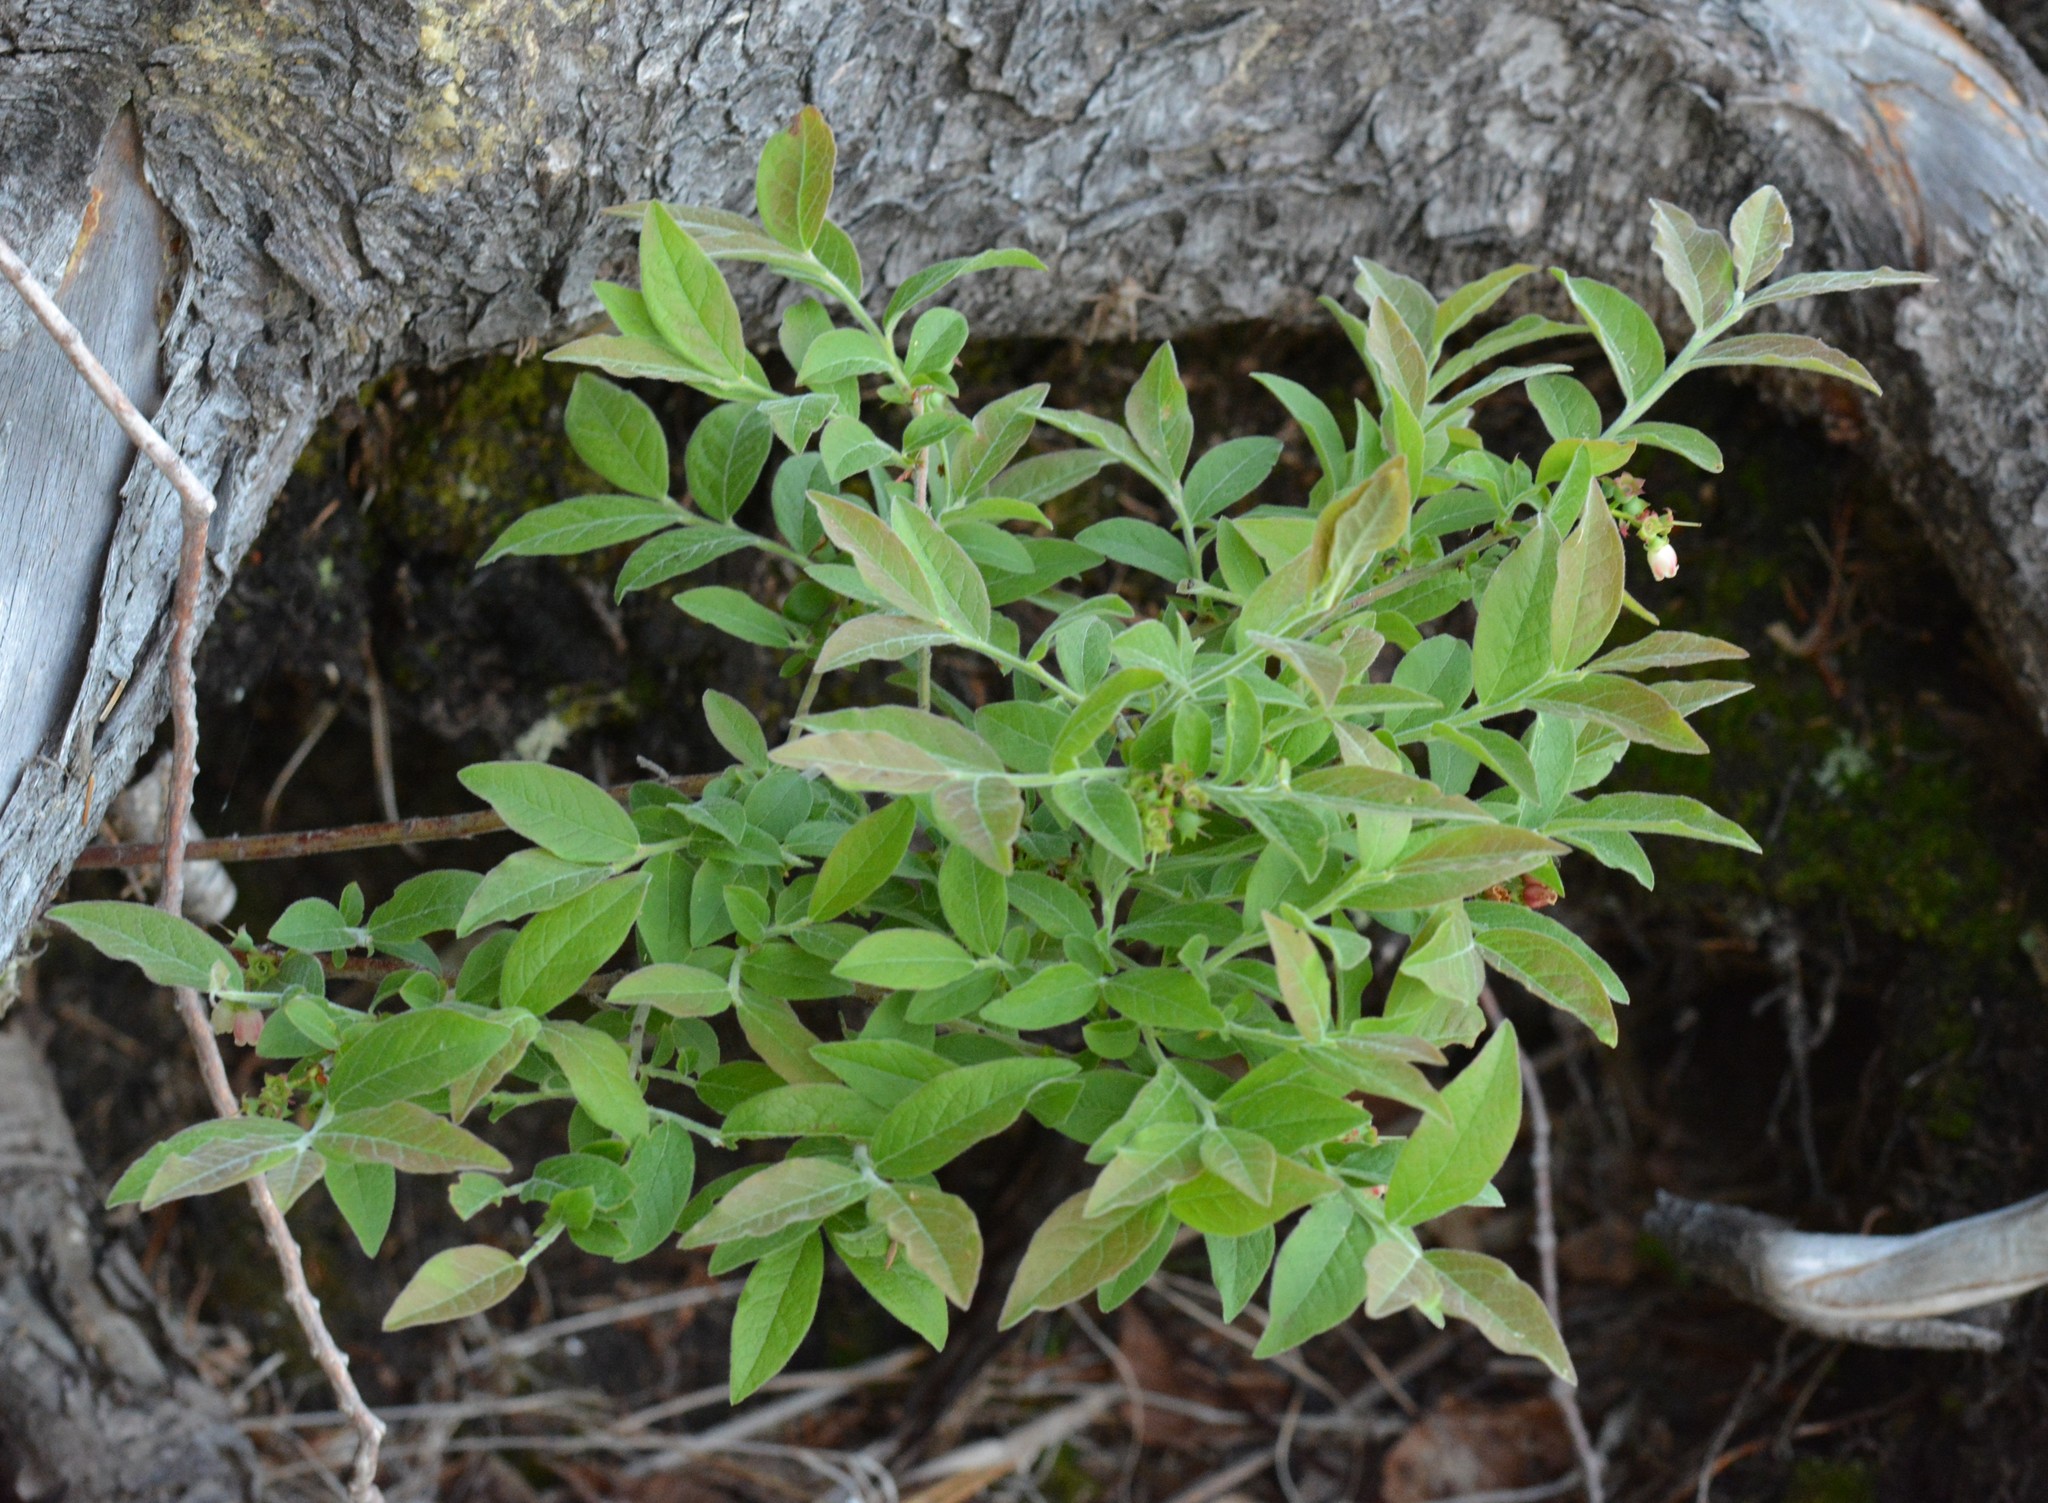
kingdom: Plantae
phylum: Tracheophyta
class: Magnoliopsida
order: Ericales
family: Ericaceae
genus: Vaccinium
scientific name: Vaccinium myrtilloides
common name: Canada blueberry
